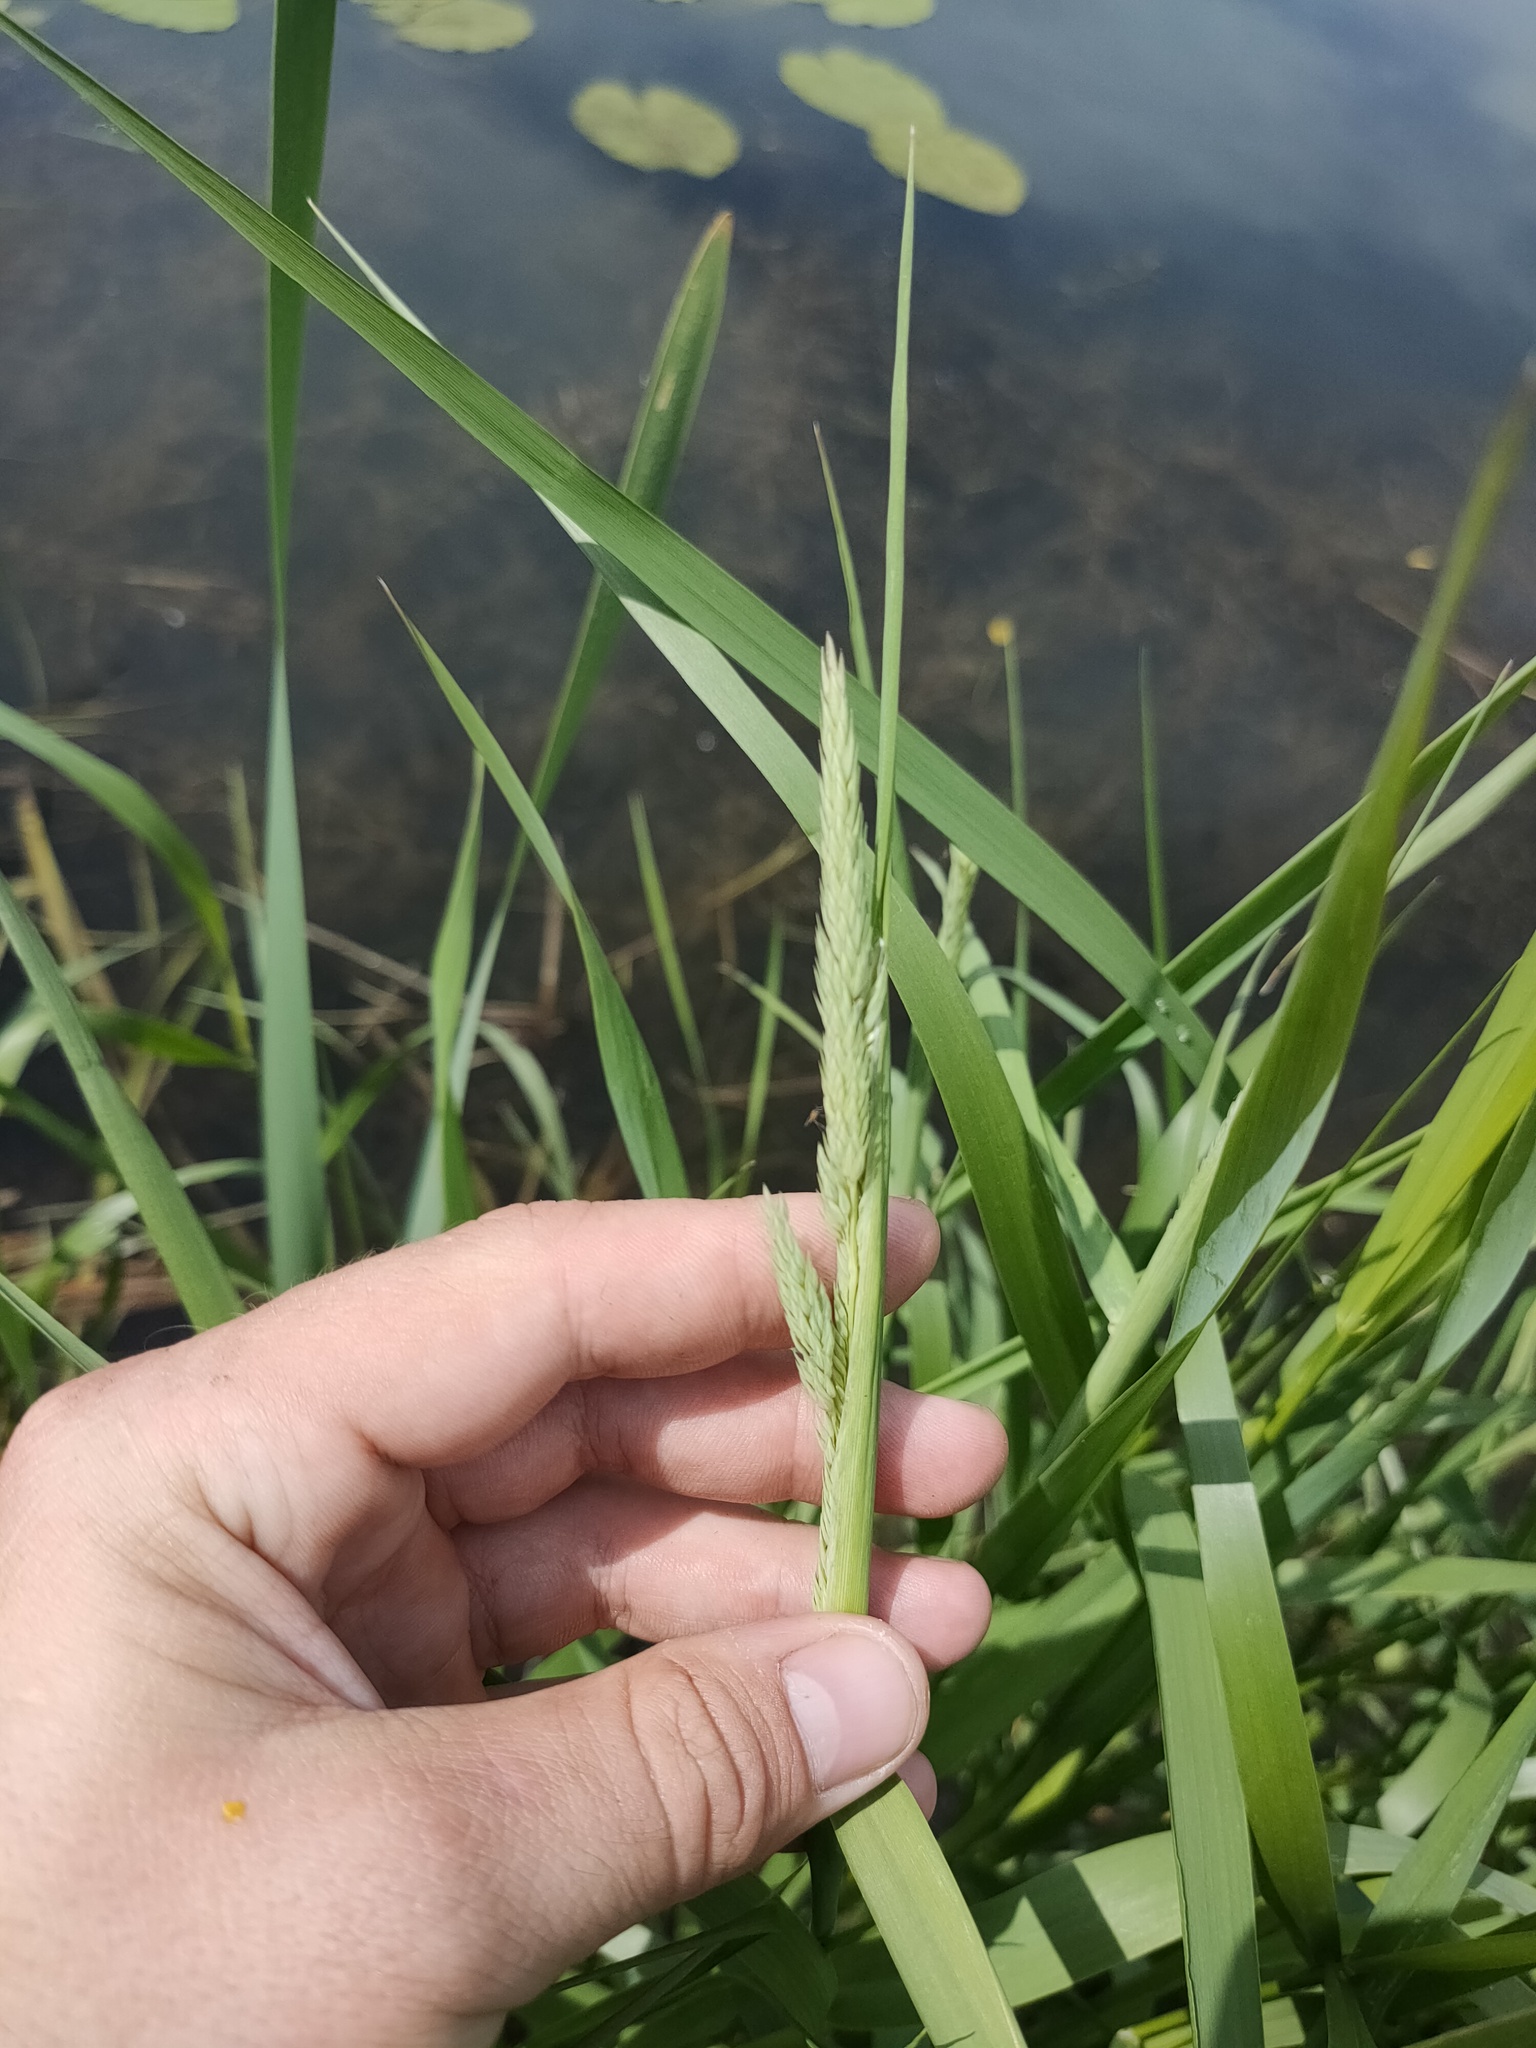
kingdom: Plantae
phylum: Tracheophyta
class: Liliopsida
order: Poales
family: Poaceae
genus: Phalaris
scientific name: Phalaris arundinacea
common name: Reed canary-grass
